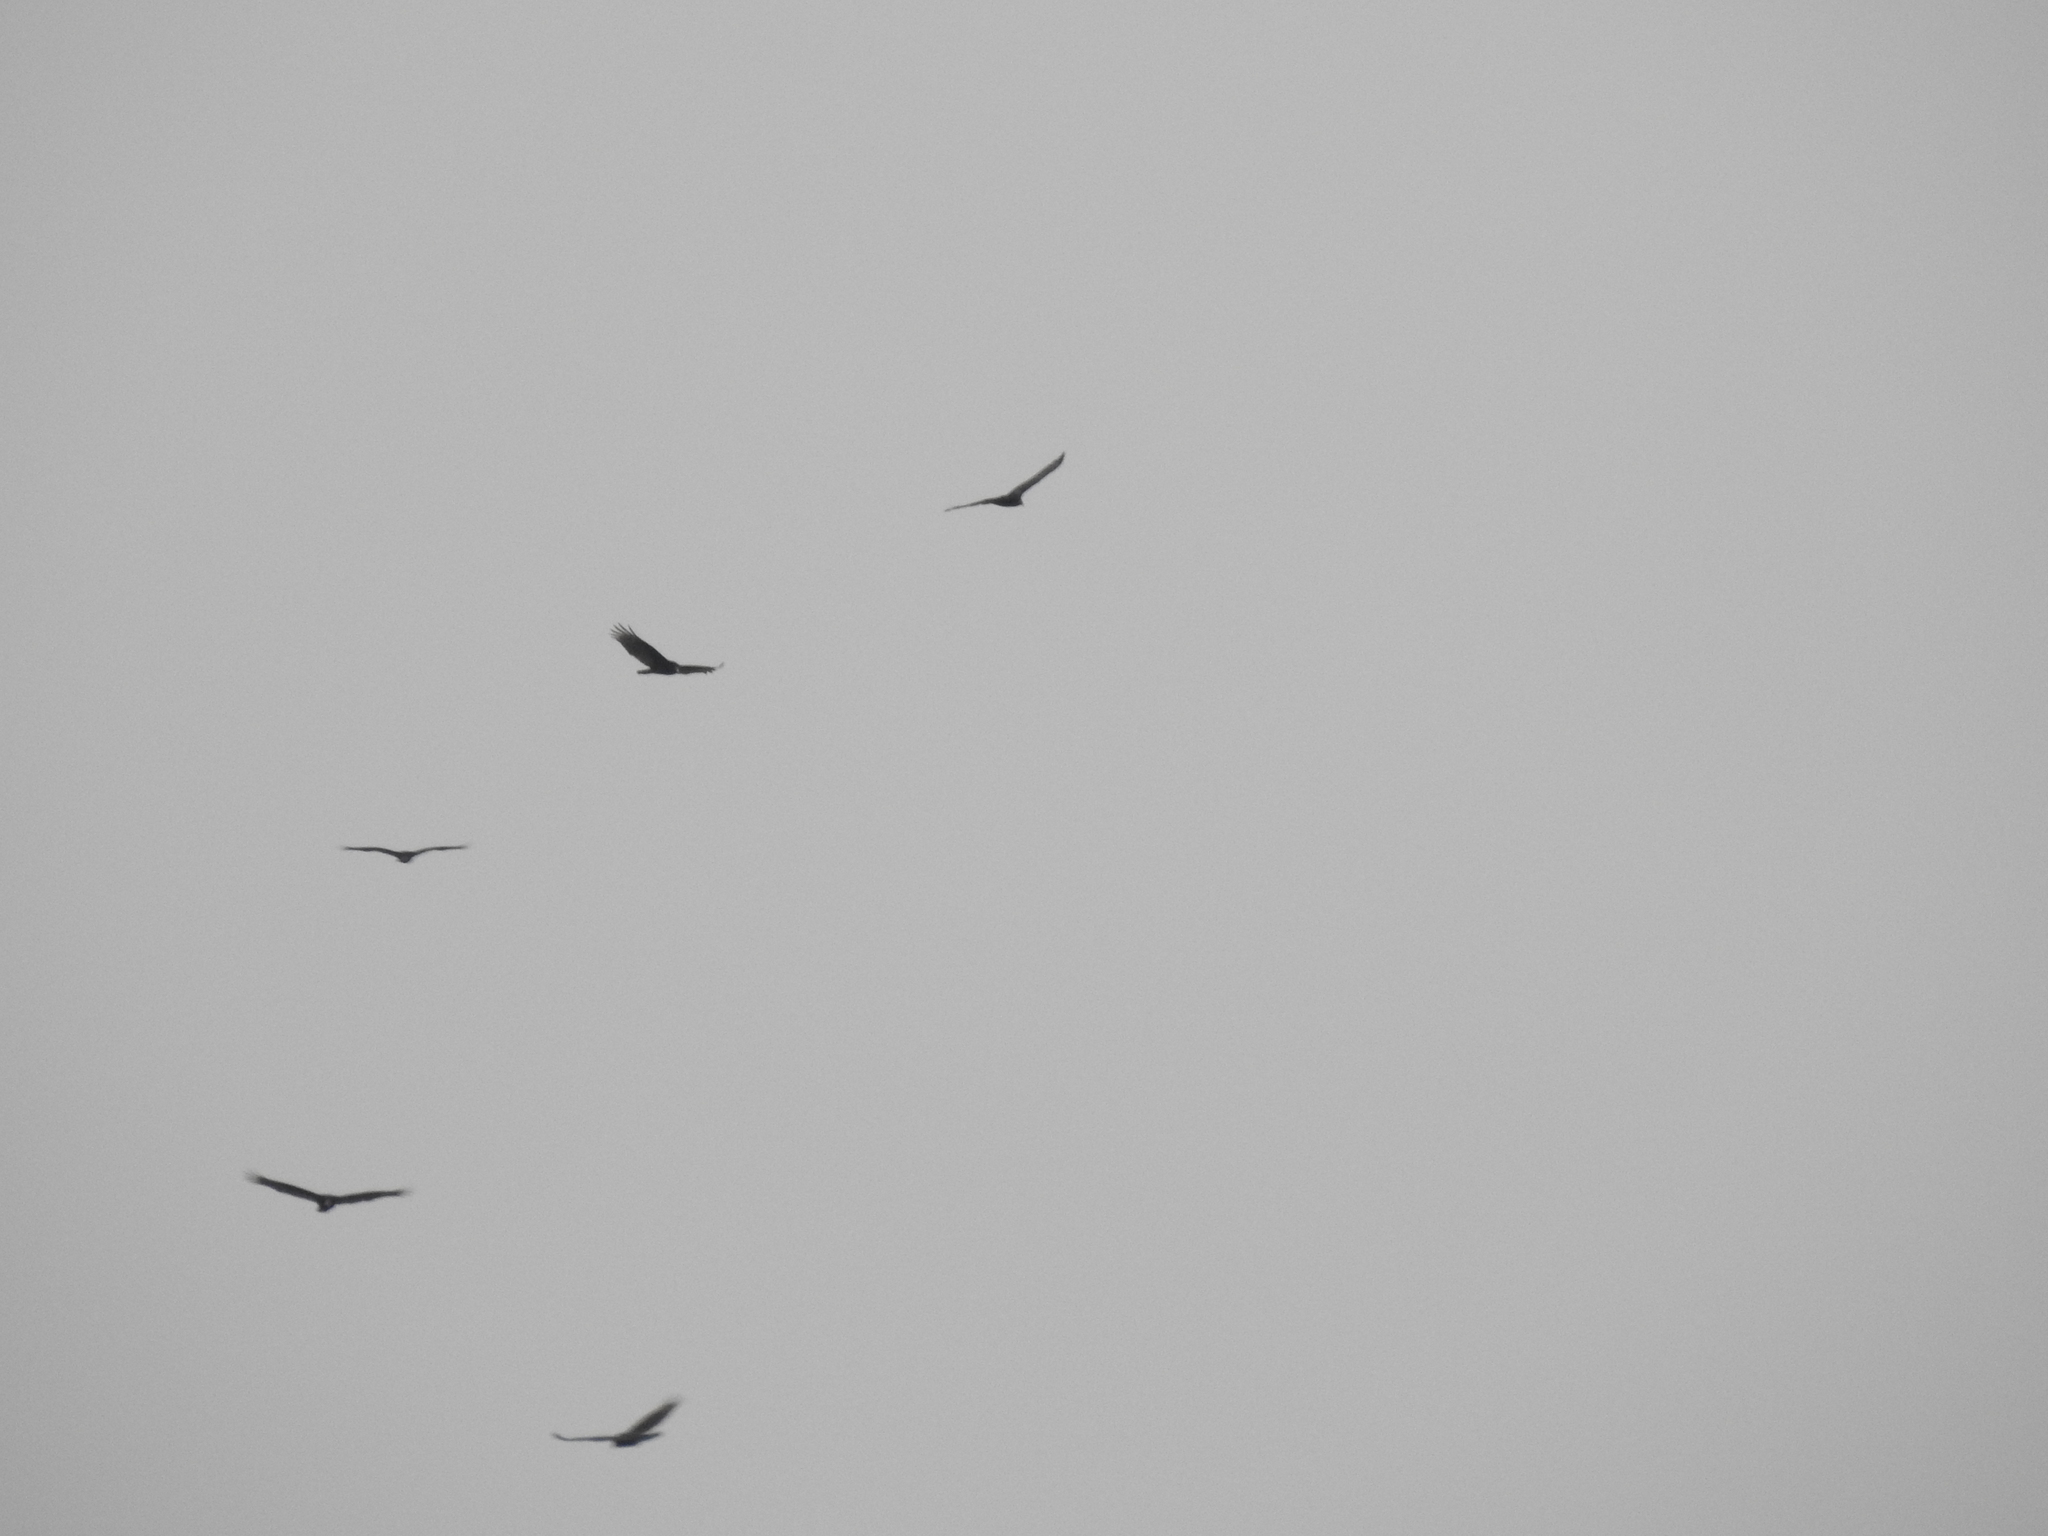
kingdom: Animalia
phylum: Chordata
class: Aves
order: Accipitriformes
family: Cathartidae
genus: Cathartes
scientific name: Cathartes aura
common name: Turkey vulture
